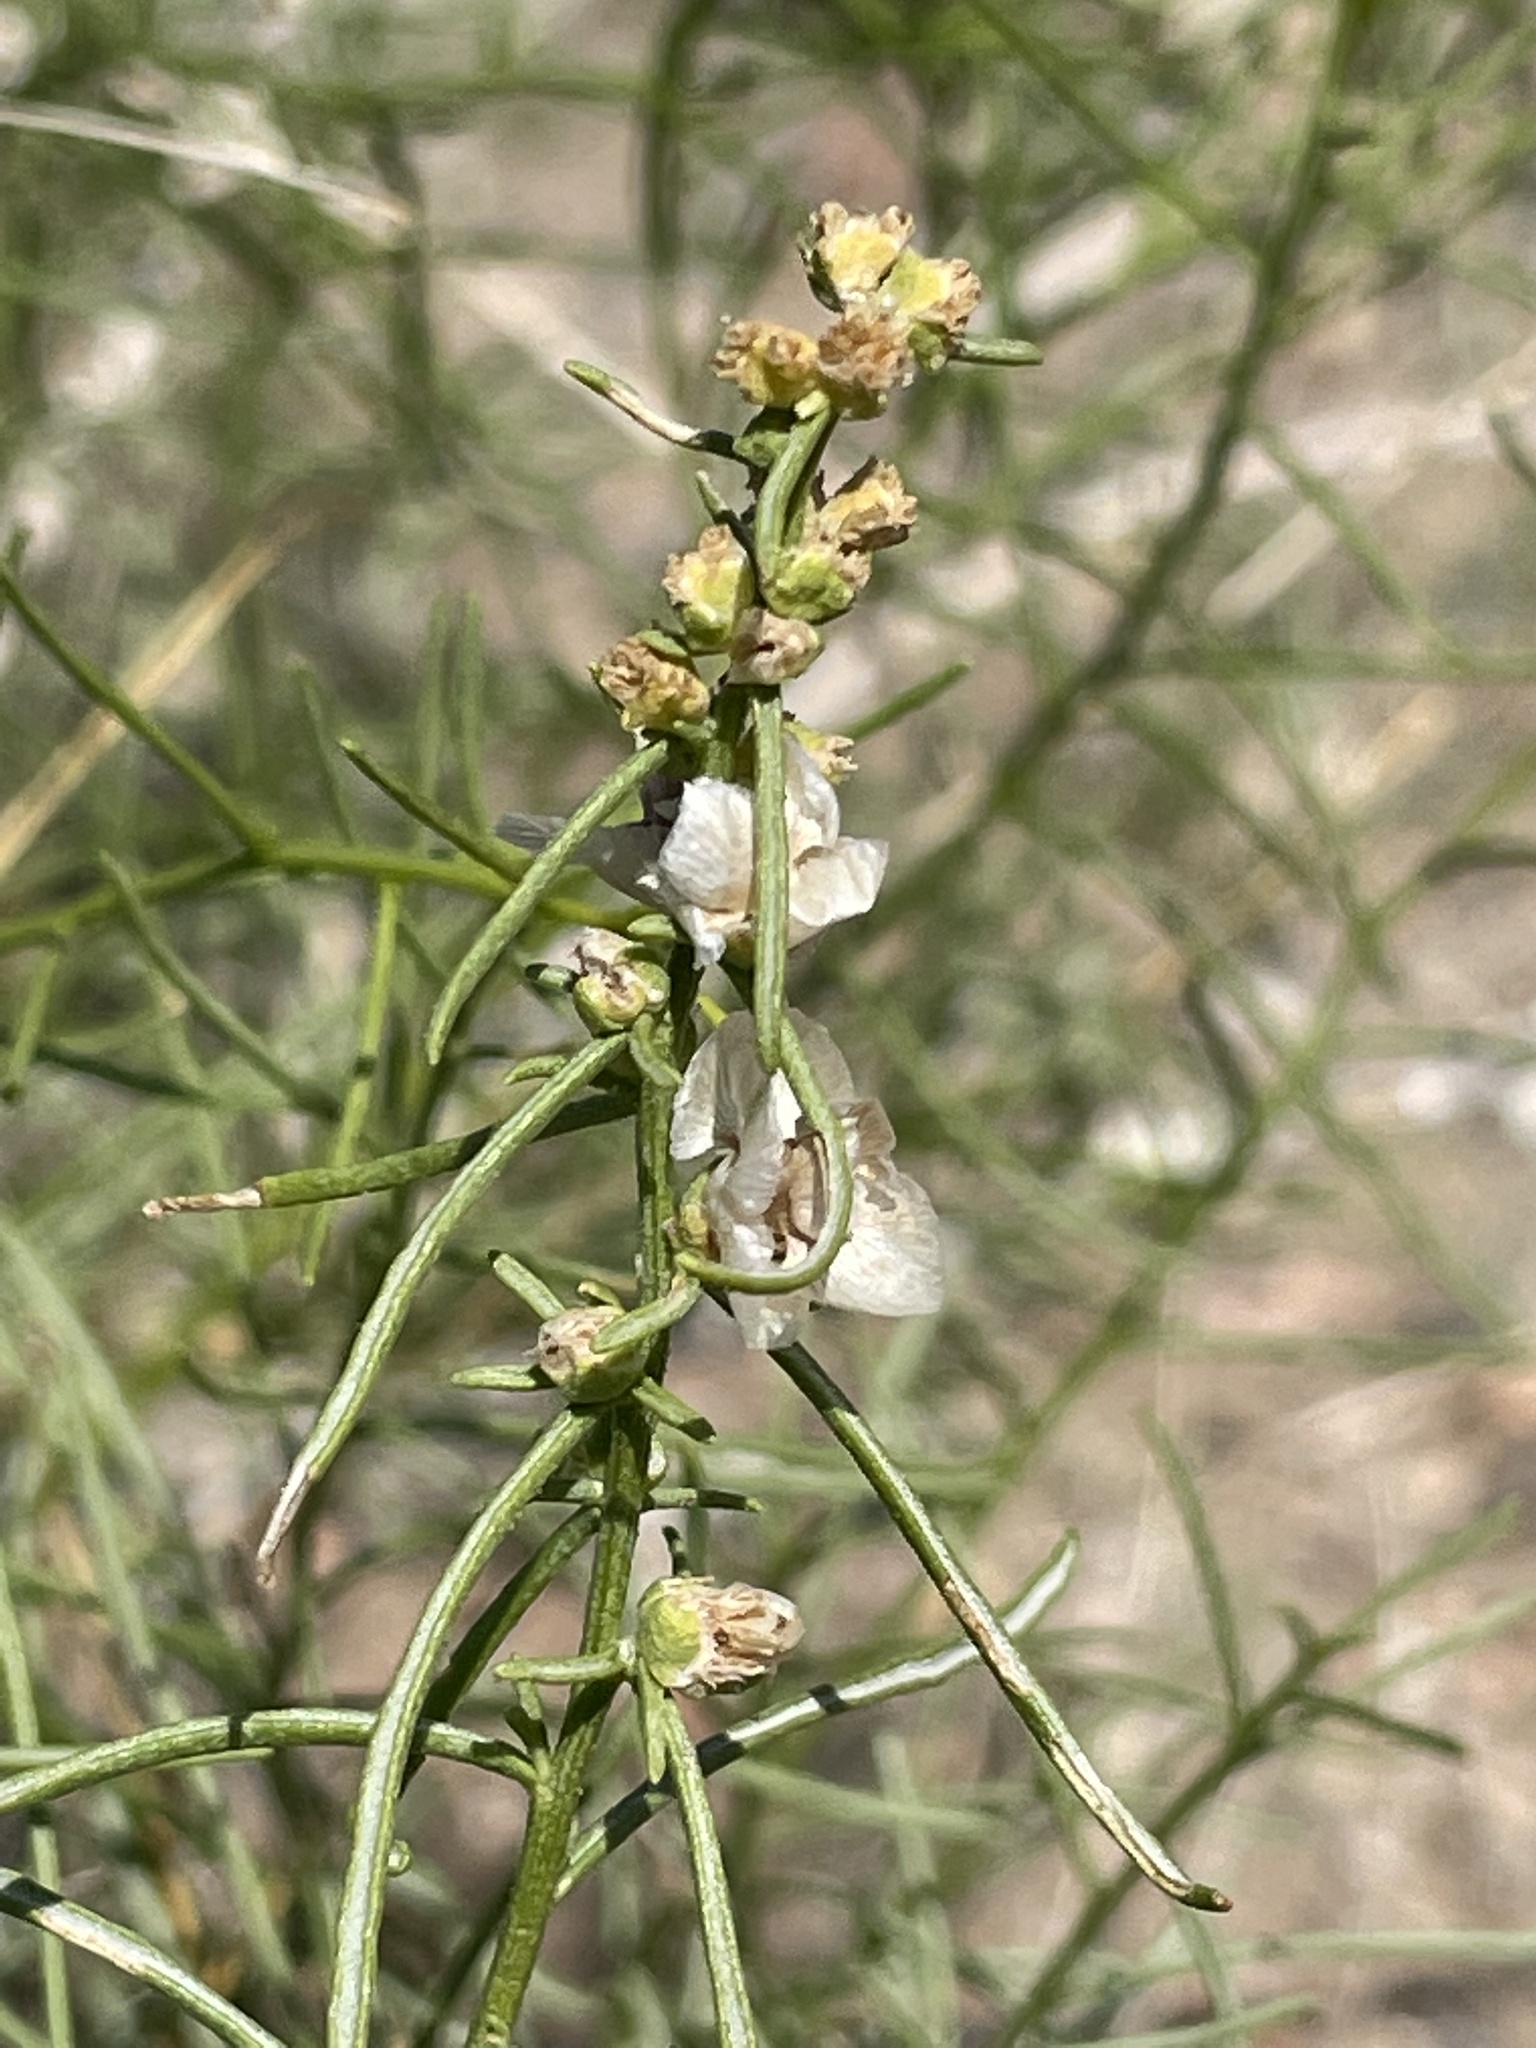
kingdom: Plantae
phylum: Tracheophyta
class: Magnoliopsida
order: Asterales
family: Asteraceae
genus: Ambrosia
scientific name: Ambrosia salsola
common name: Burrobrush
